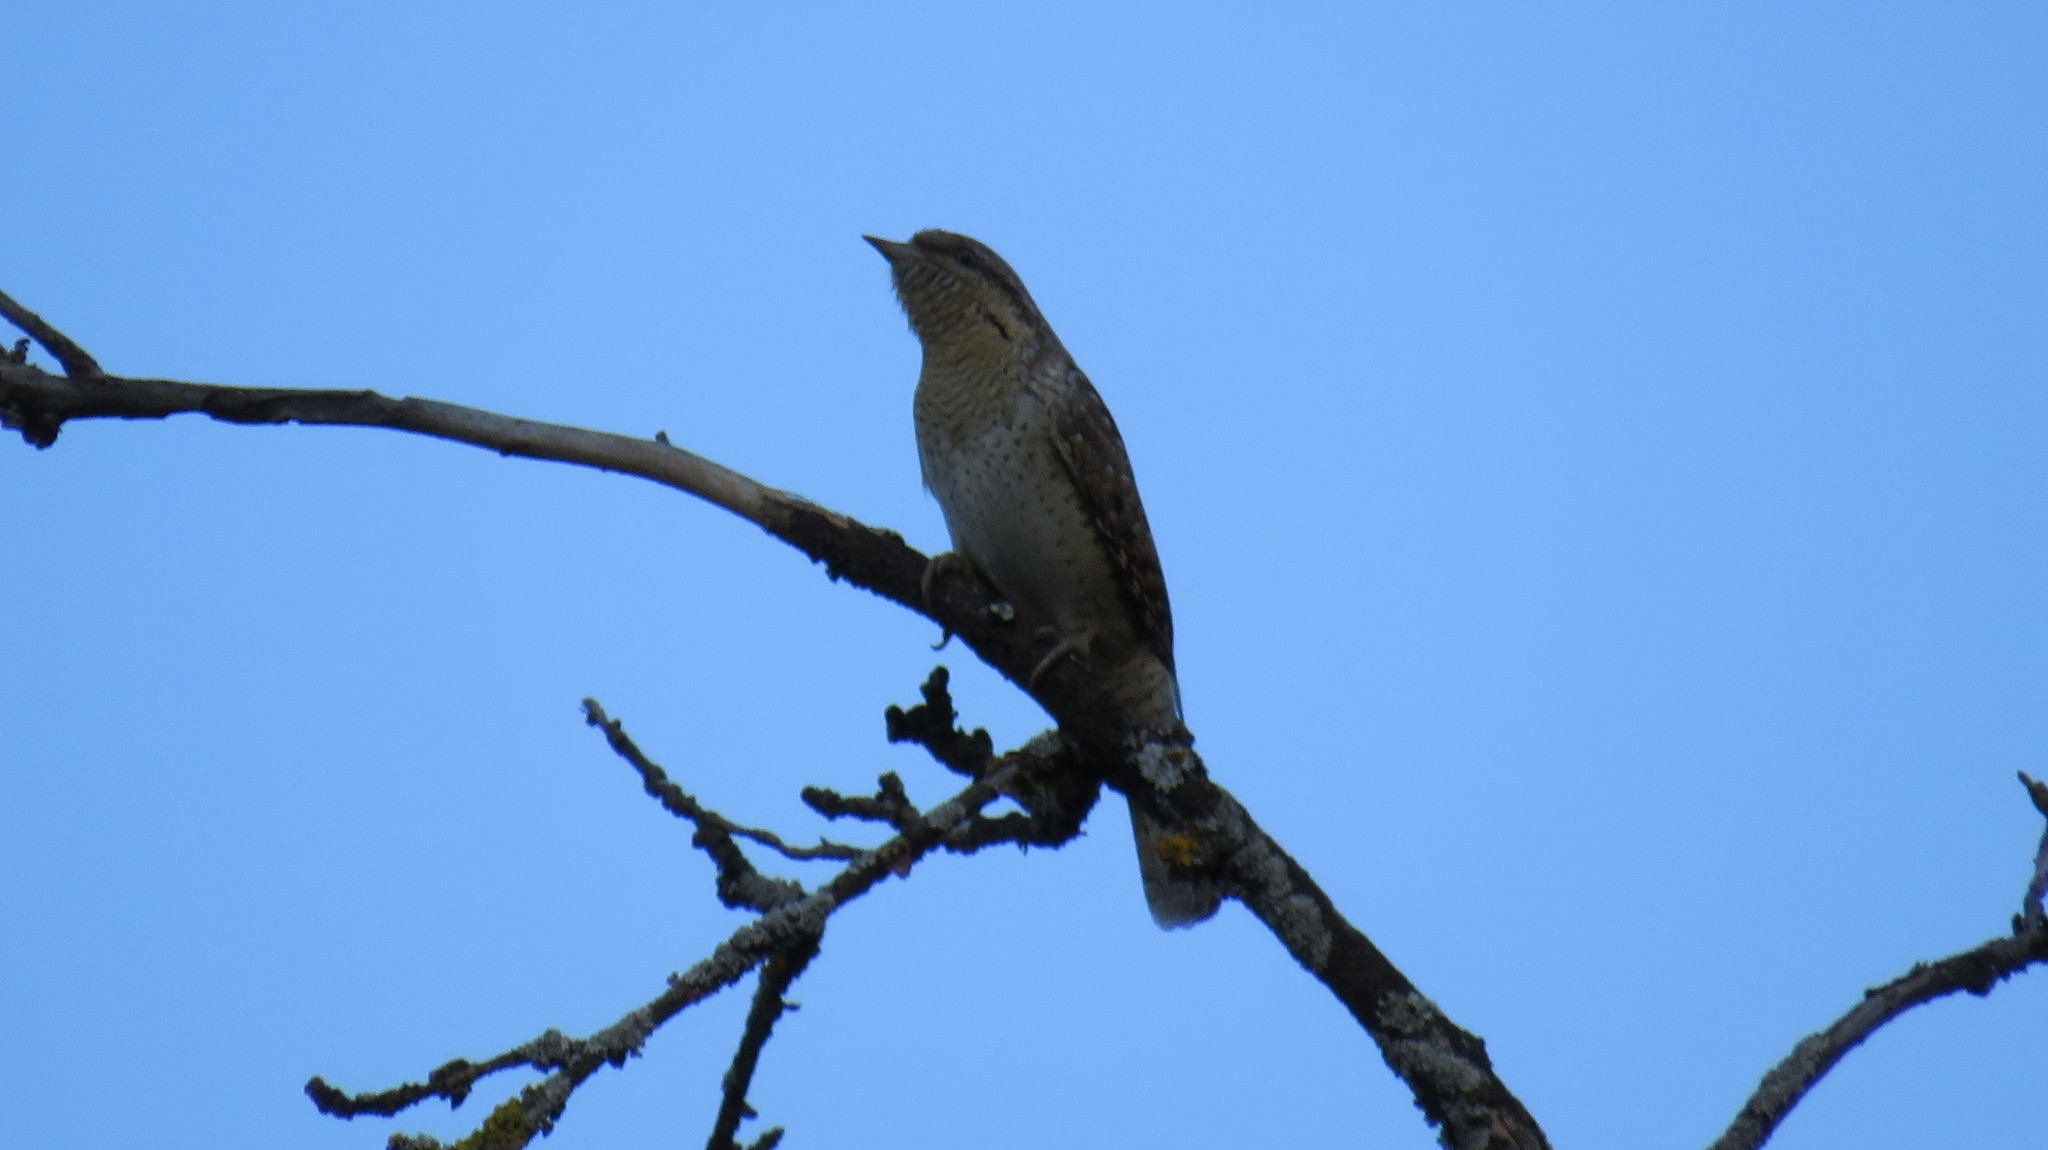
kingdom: Animalia
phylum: Chordata
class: Aves
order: Piciformes
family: Picidae
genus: Jynx
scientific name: Jynx torquilla
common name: Eurasian wryneck
